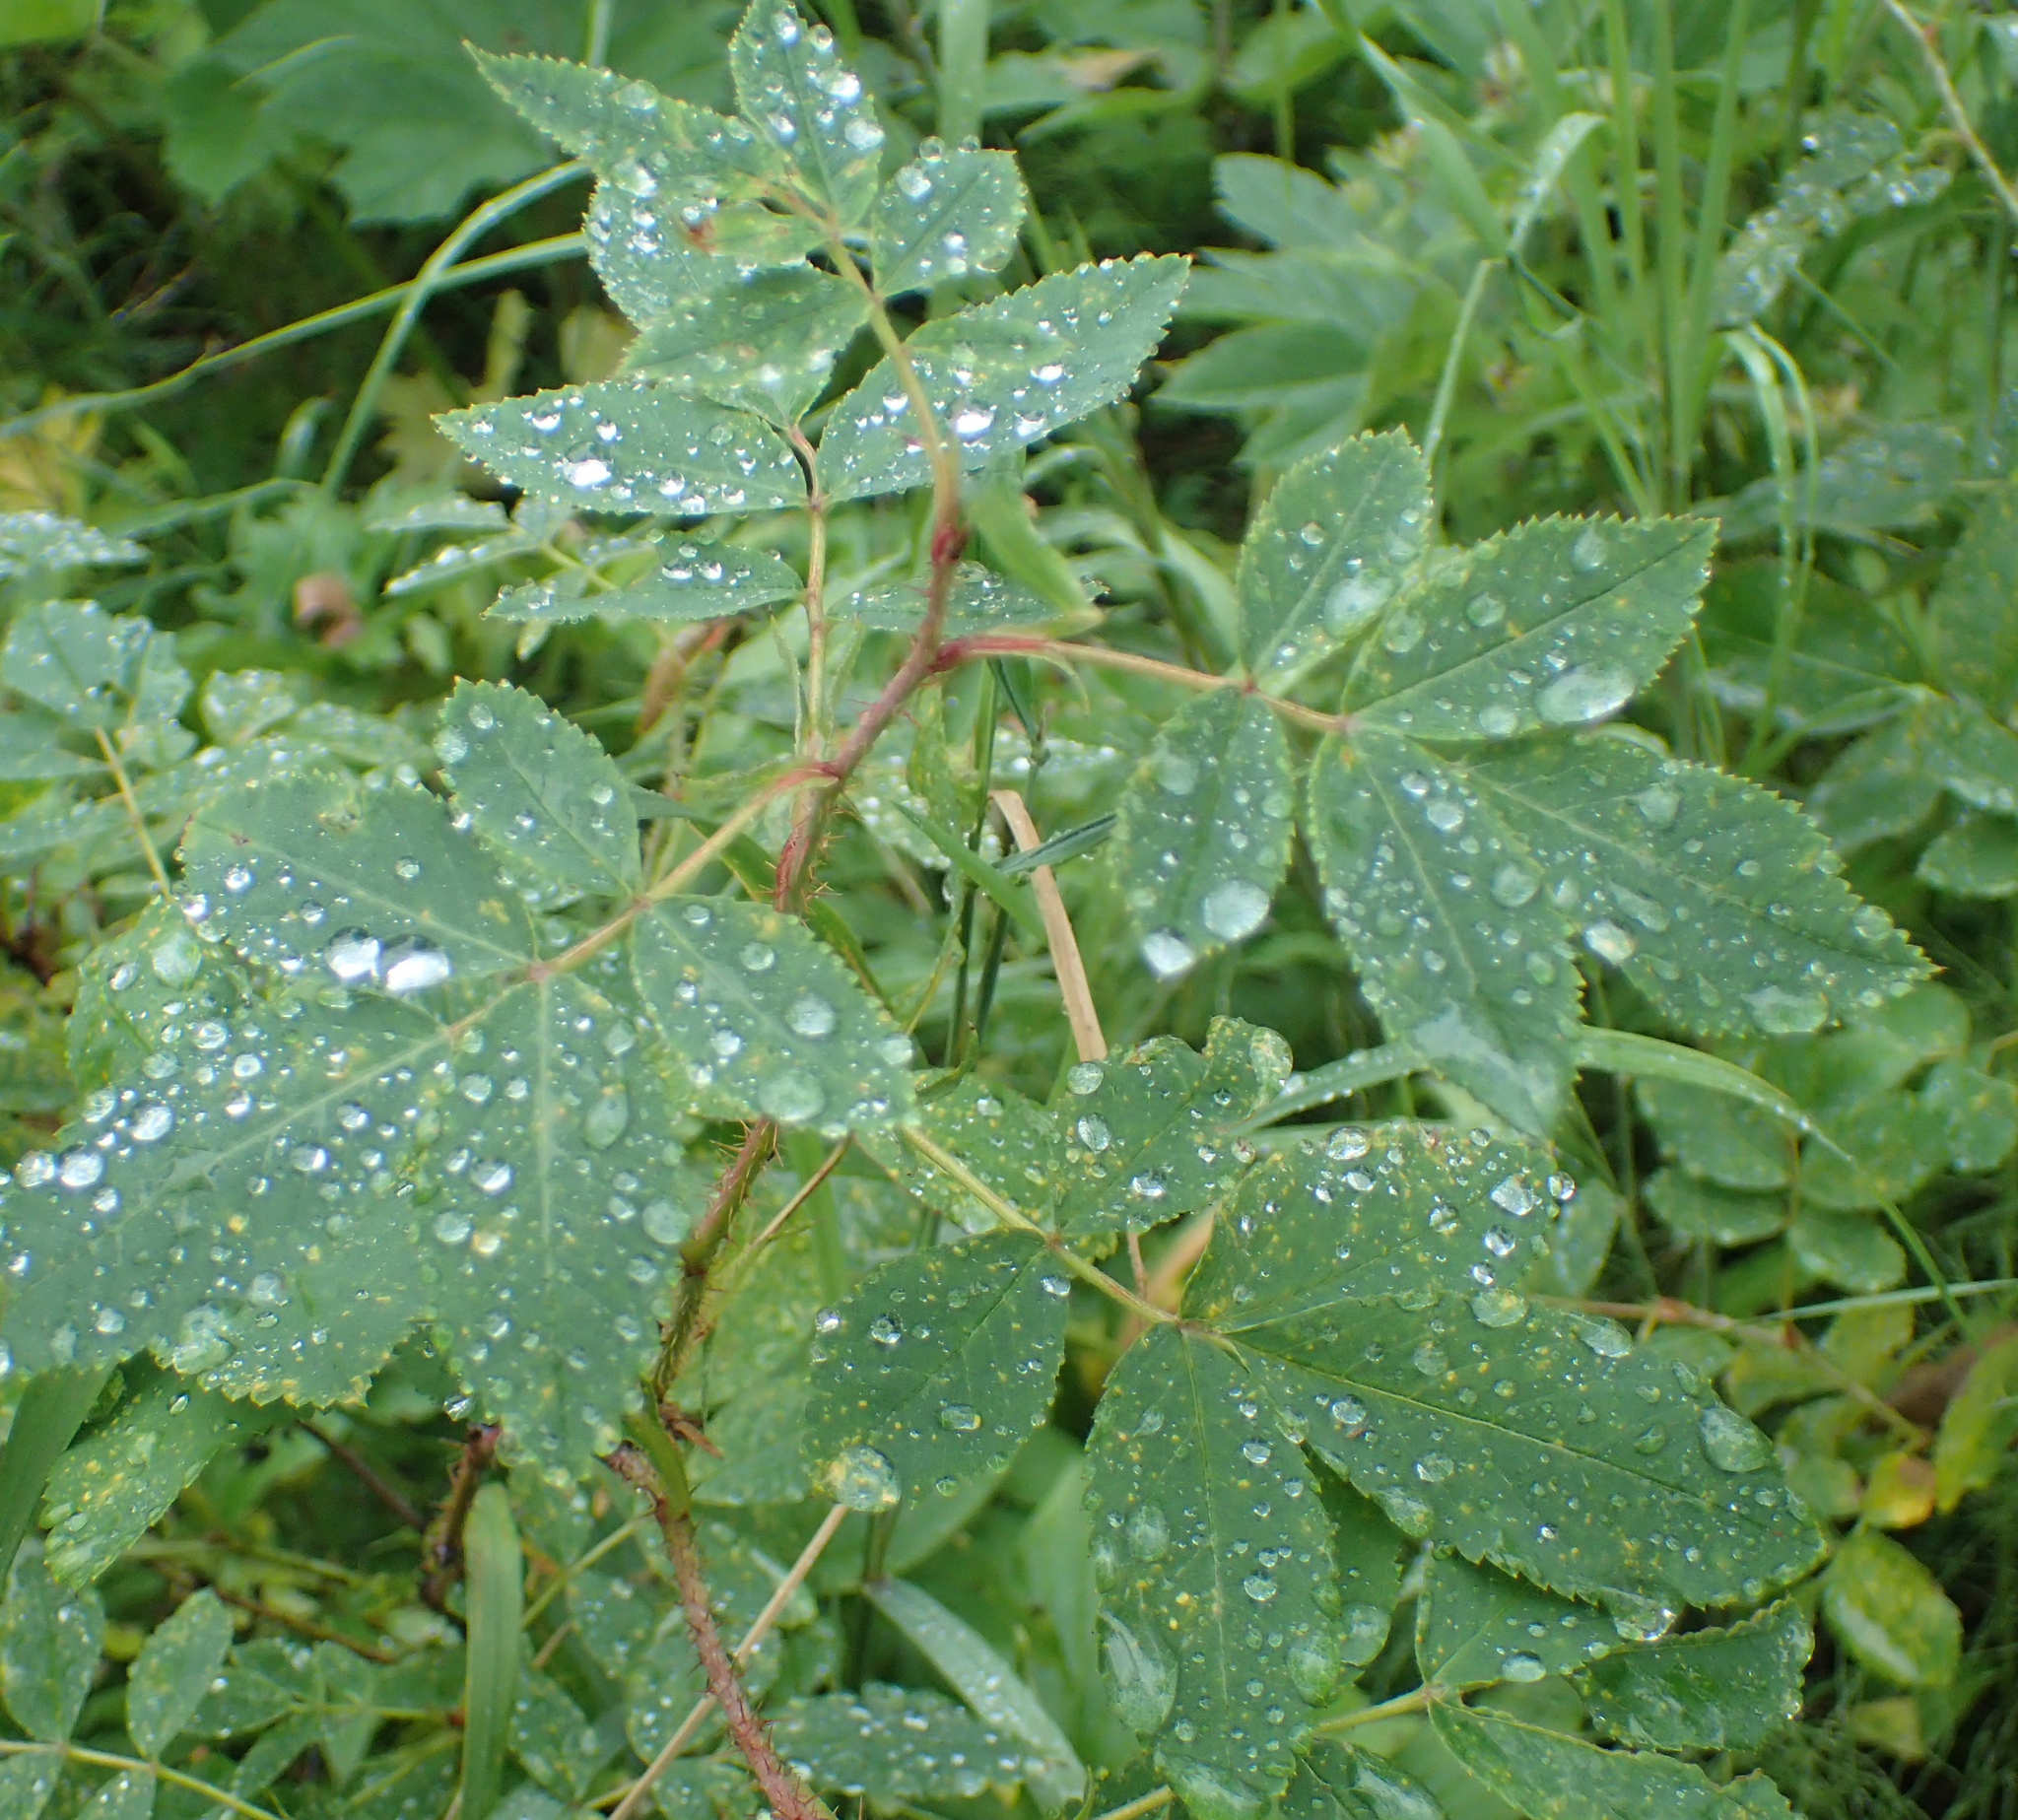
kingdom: Plantae
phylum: Tracheophyta
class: Magnoliopsida
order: Rosales
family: Rosaceae
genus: Rosa
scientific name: Rosa nutkana
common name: Nootka rose
